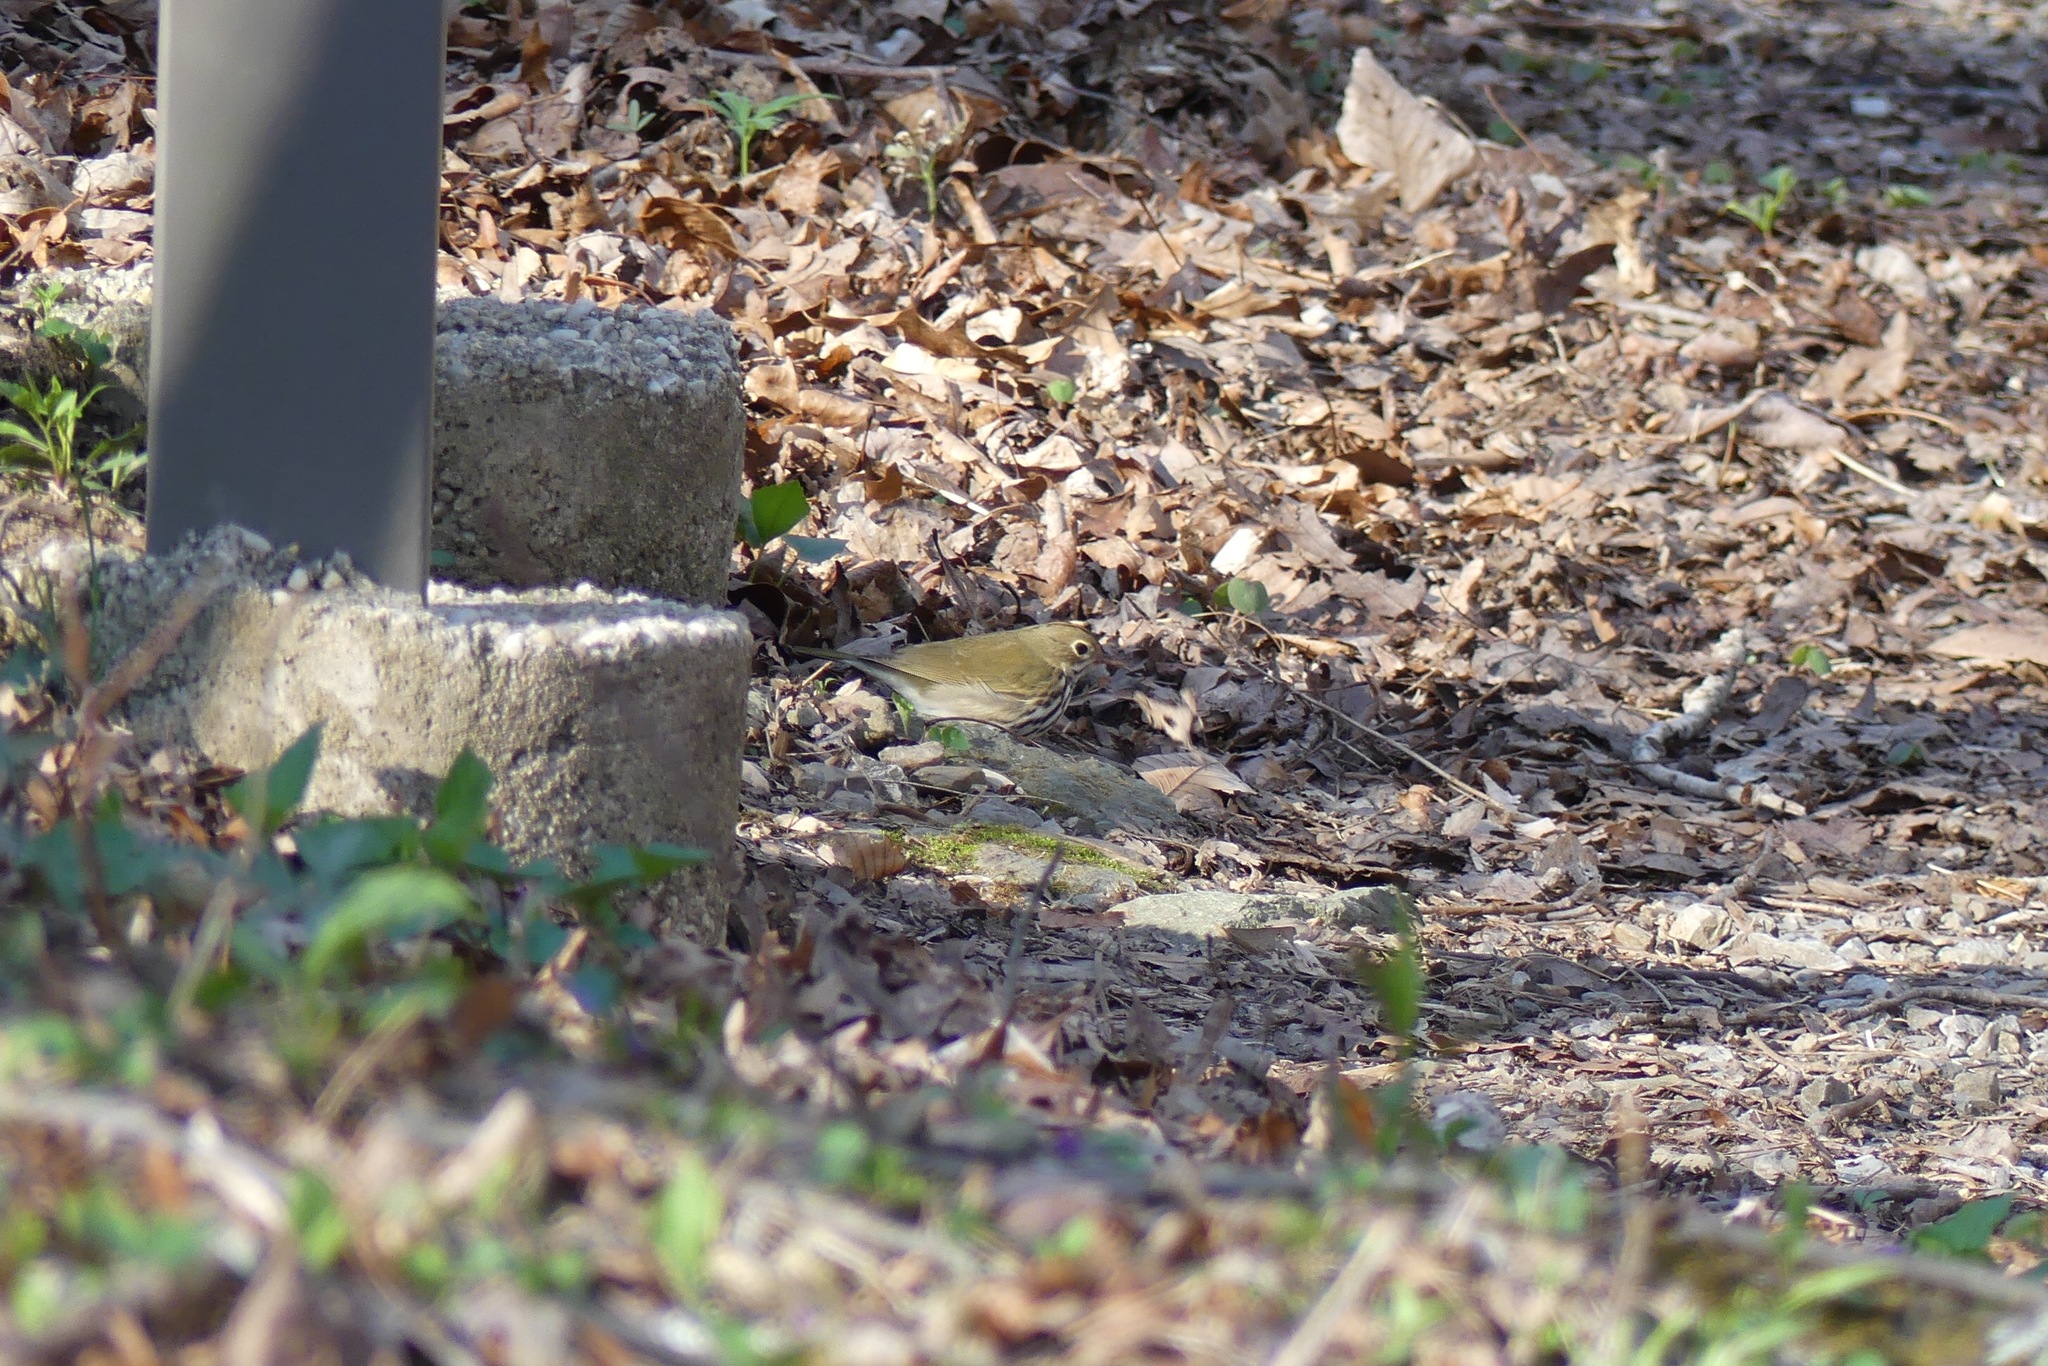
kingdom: Animalia
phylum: Chordata
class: Aves
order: Passeriformes
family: Parulidae
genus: Seiurus
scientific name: Seiurus aurocapilla
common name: Ovenbird
